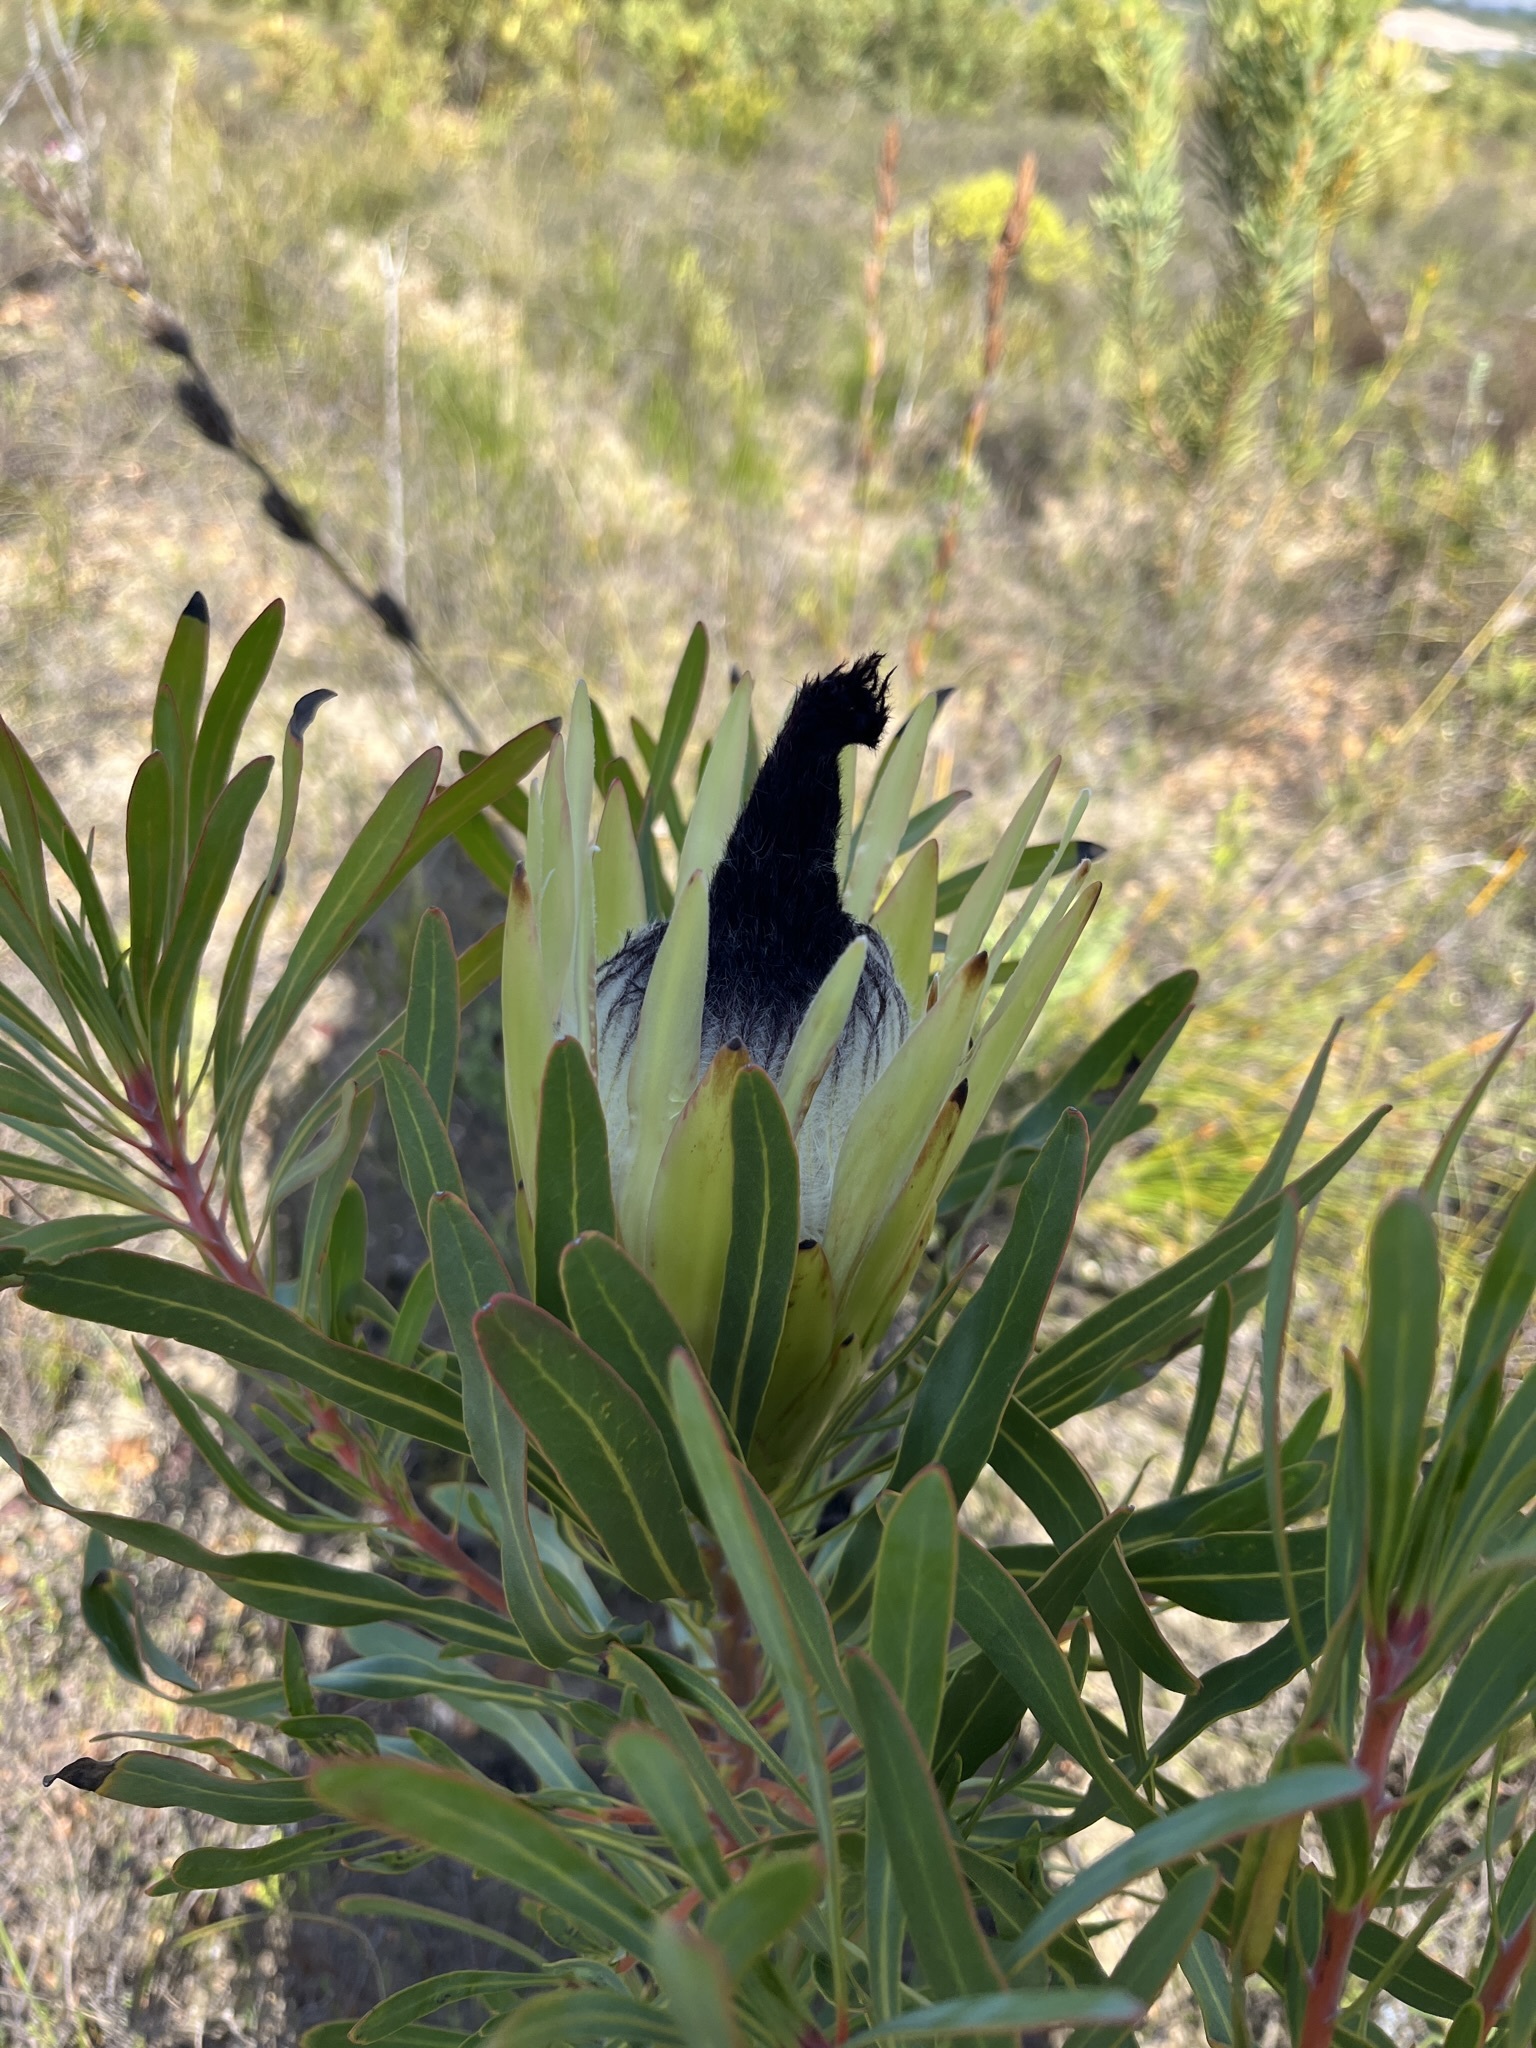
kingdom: Plantae
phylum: Tracheophyta
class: Magnoliopsida
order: Proteales
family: Proteaceae
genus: Protea
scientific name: Protea longifolia
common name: Long-leaf sugarbush
